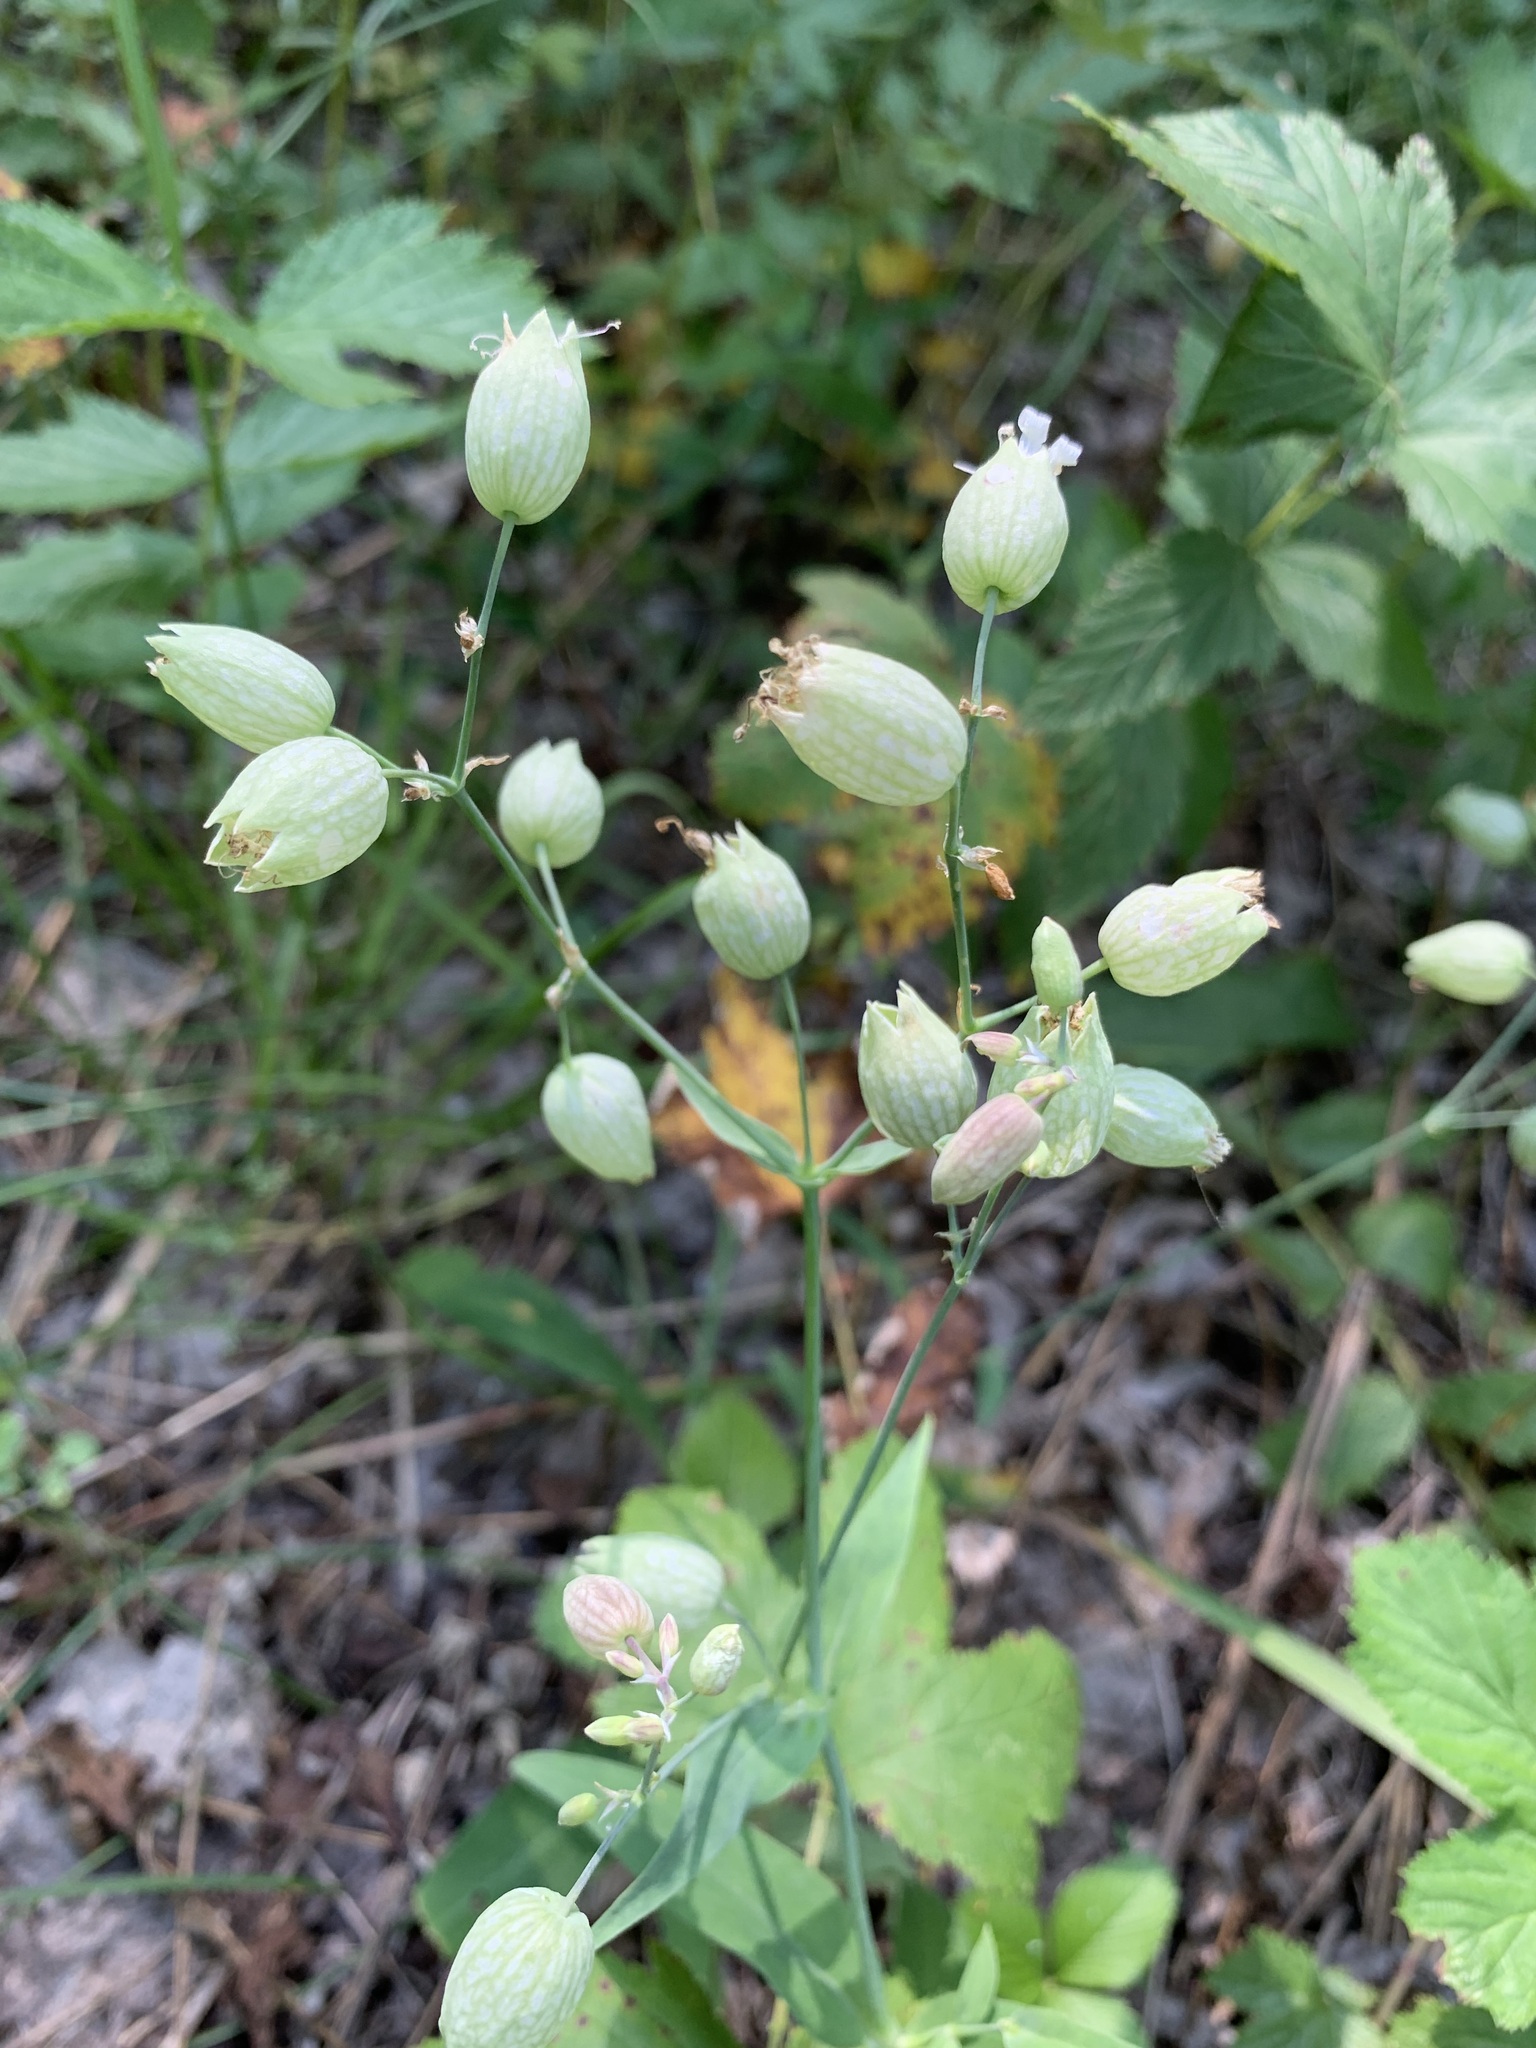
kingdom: Plantae
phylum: Tracheophyta
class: Magnoliopsida
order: Caryophyllales
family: Caryophyllaceae
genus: Silene
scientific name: Silene vulgaris
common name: Bladder campion
